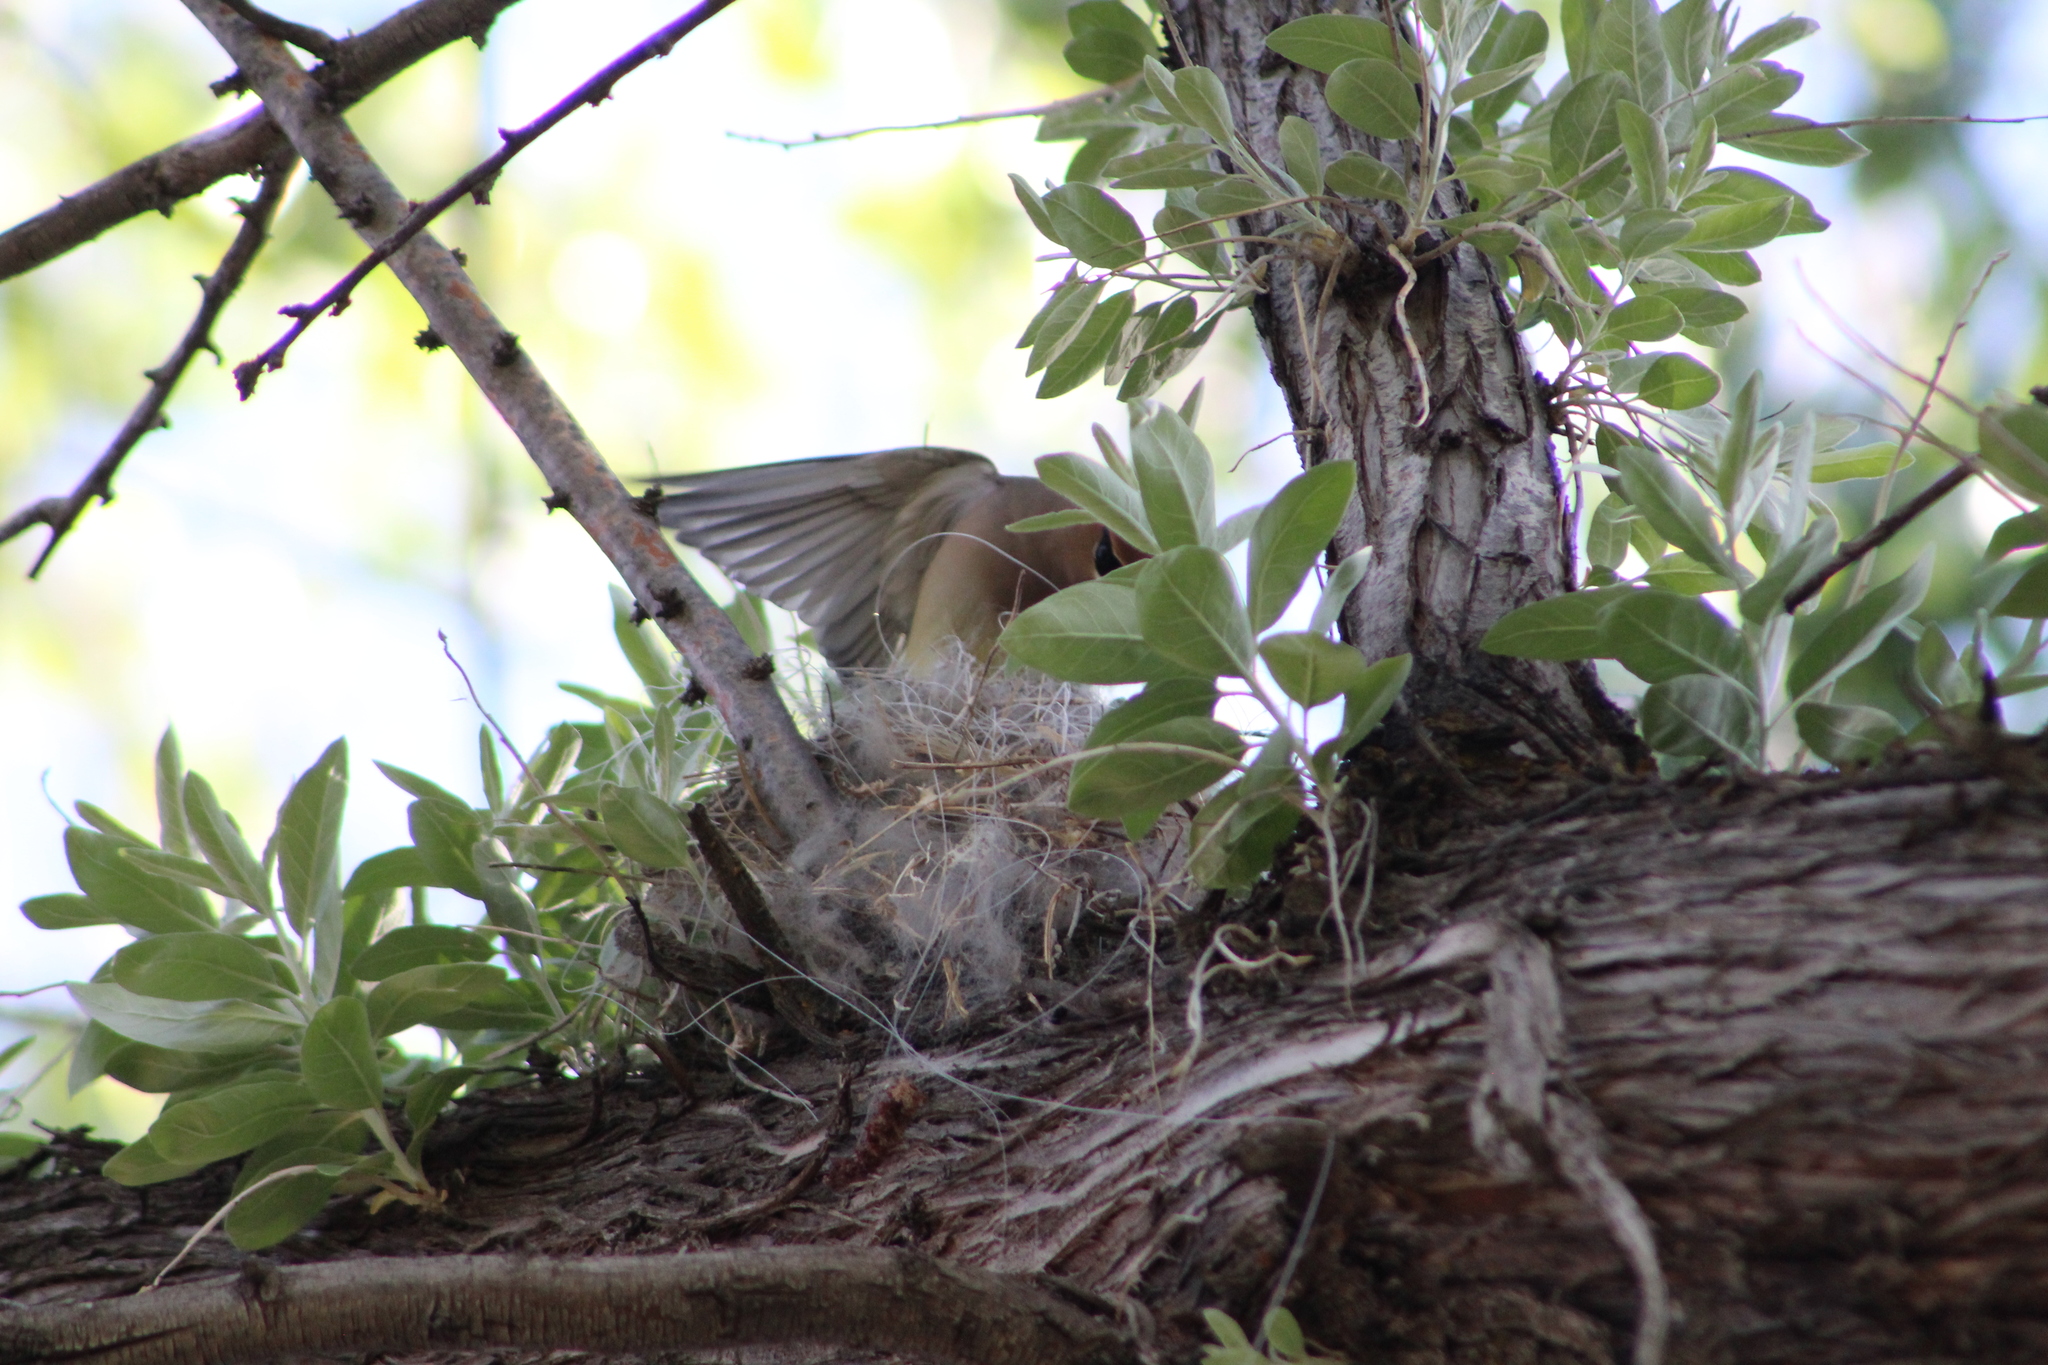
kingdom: Animalia
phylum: Chordata
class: Aves
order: Passeriformes
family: Bombycillidae
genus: Bombycilla
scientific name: Bombycilla cedrorum
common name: Cedar waxwing
